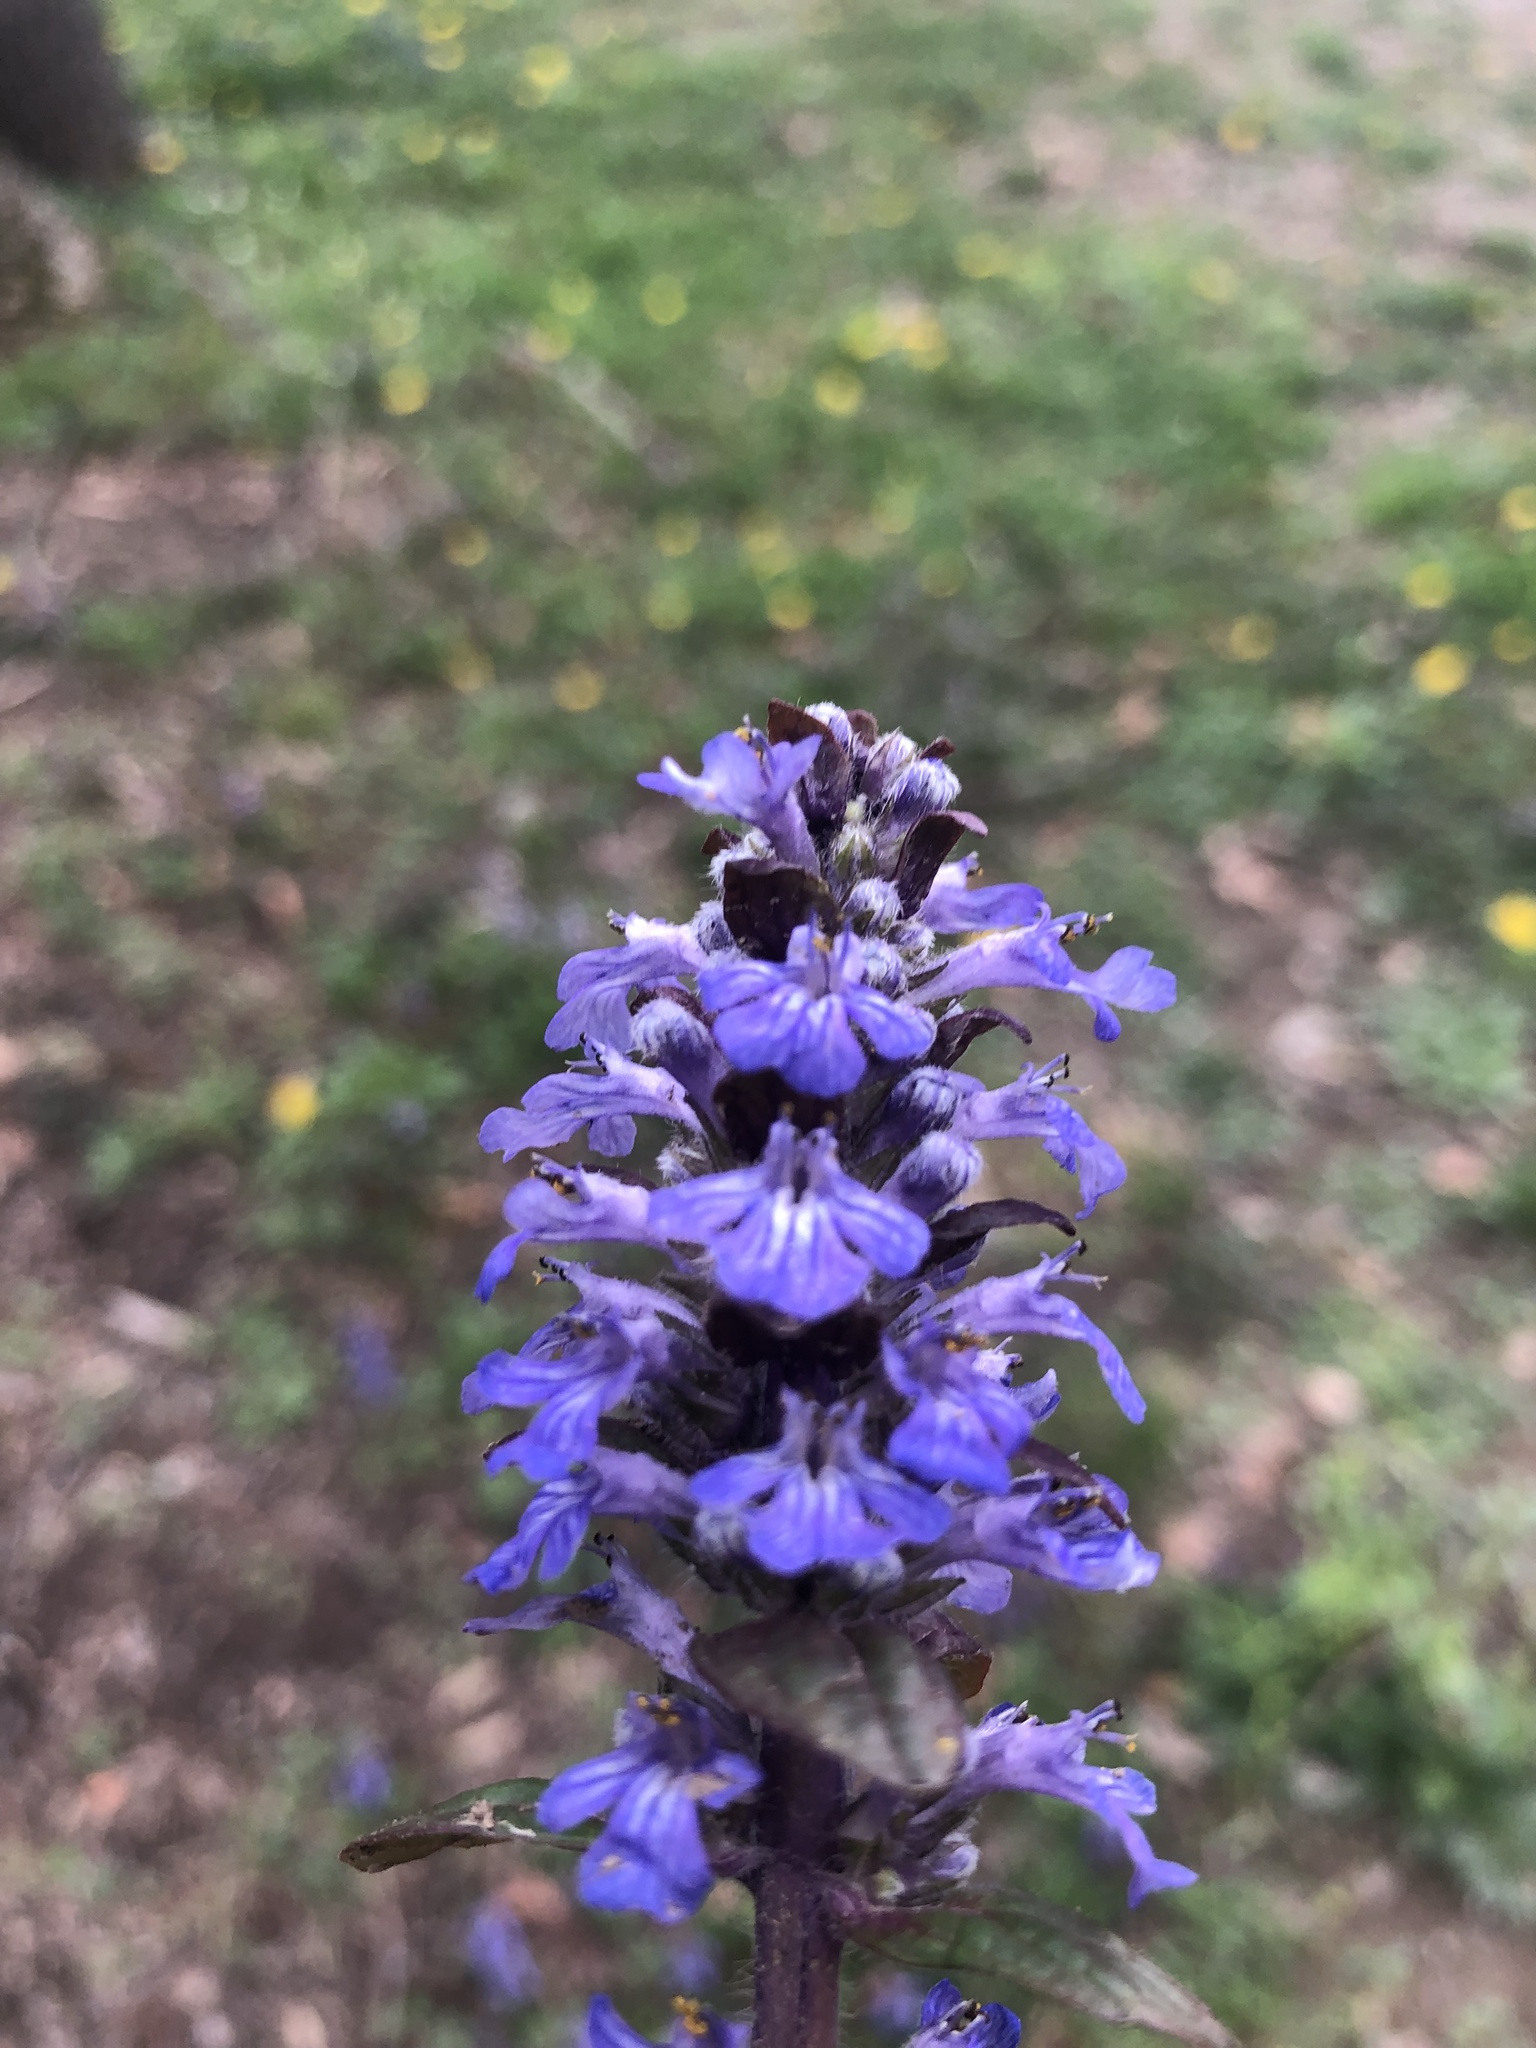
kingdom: Plantae
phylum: Tracheophyta
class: Magnoliopsida
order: Lamiales
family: Lamiaceae
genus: Ajuga
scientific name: Ajuga reptans
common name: Bugle
